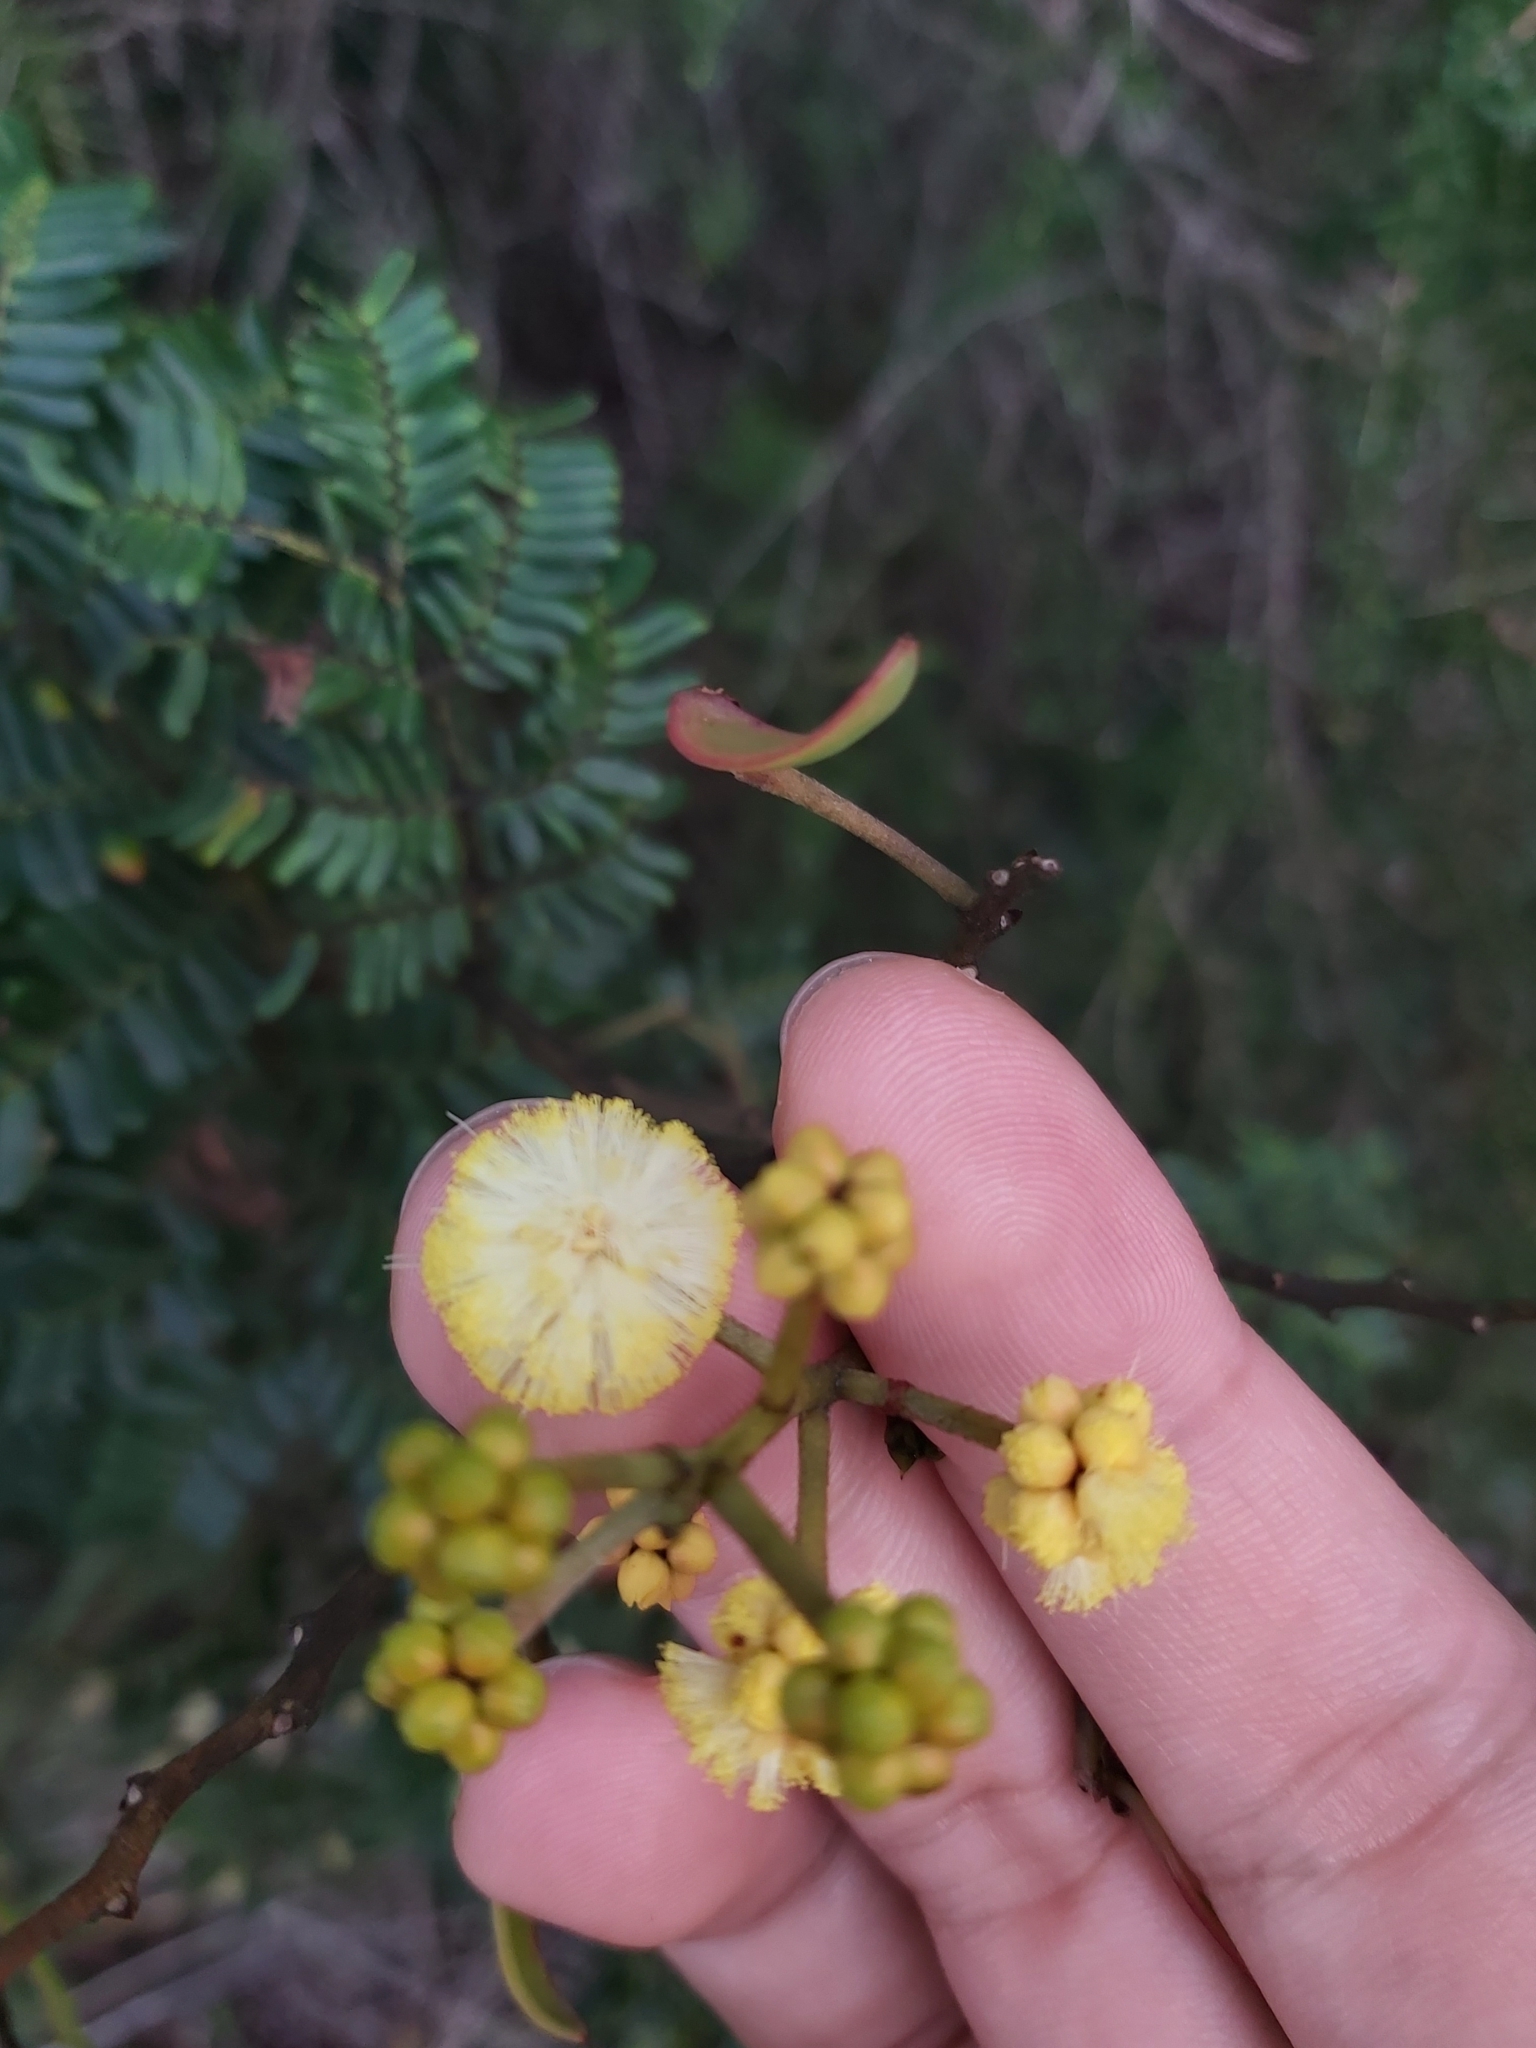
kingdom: Plantae
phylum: Tracheophyta
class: Magnoliopsida
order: Fabales
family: Fabaceae
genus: Acacia
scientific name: Acacia terminalis
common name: Cedar wattle
